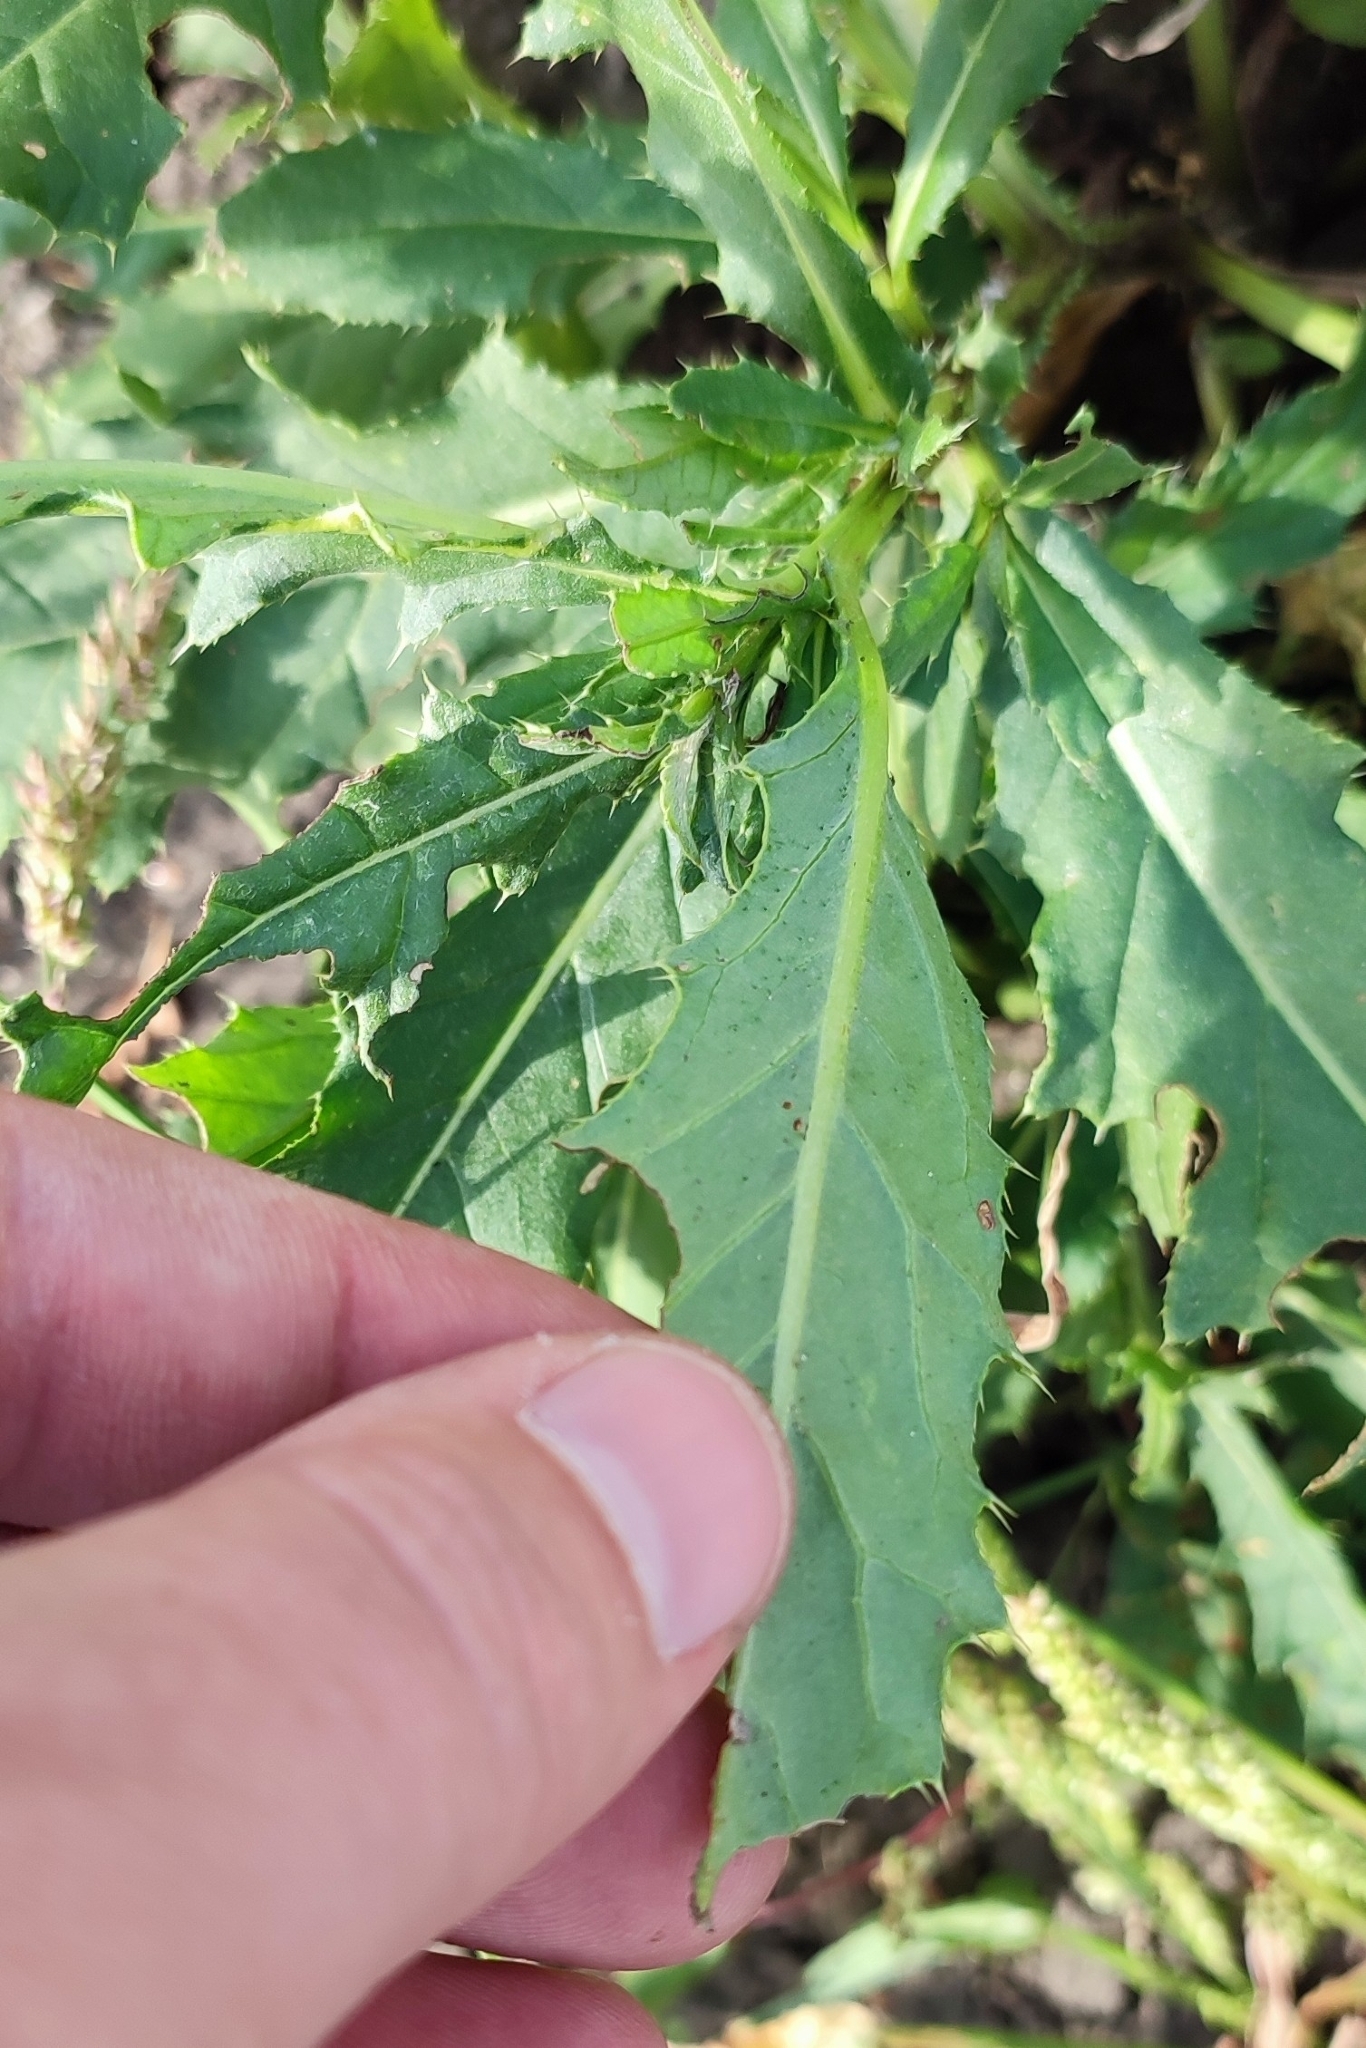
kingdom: Plantae
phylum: Tracheophyta
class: Magnoliopsida
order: Asterales
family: Asteraceae
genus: Cirsium
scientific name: Cirsium arvense
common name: Creeping thistle
